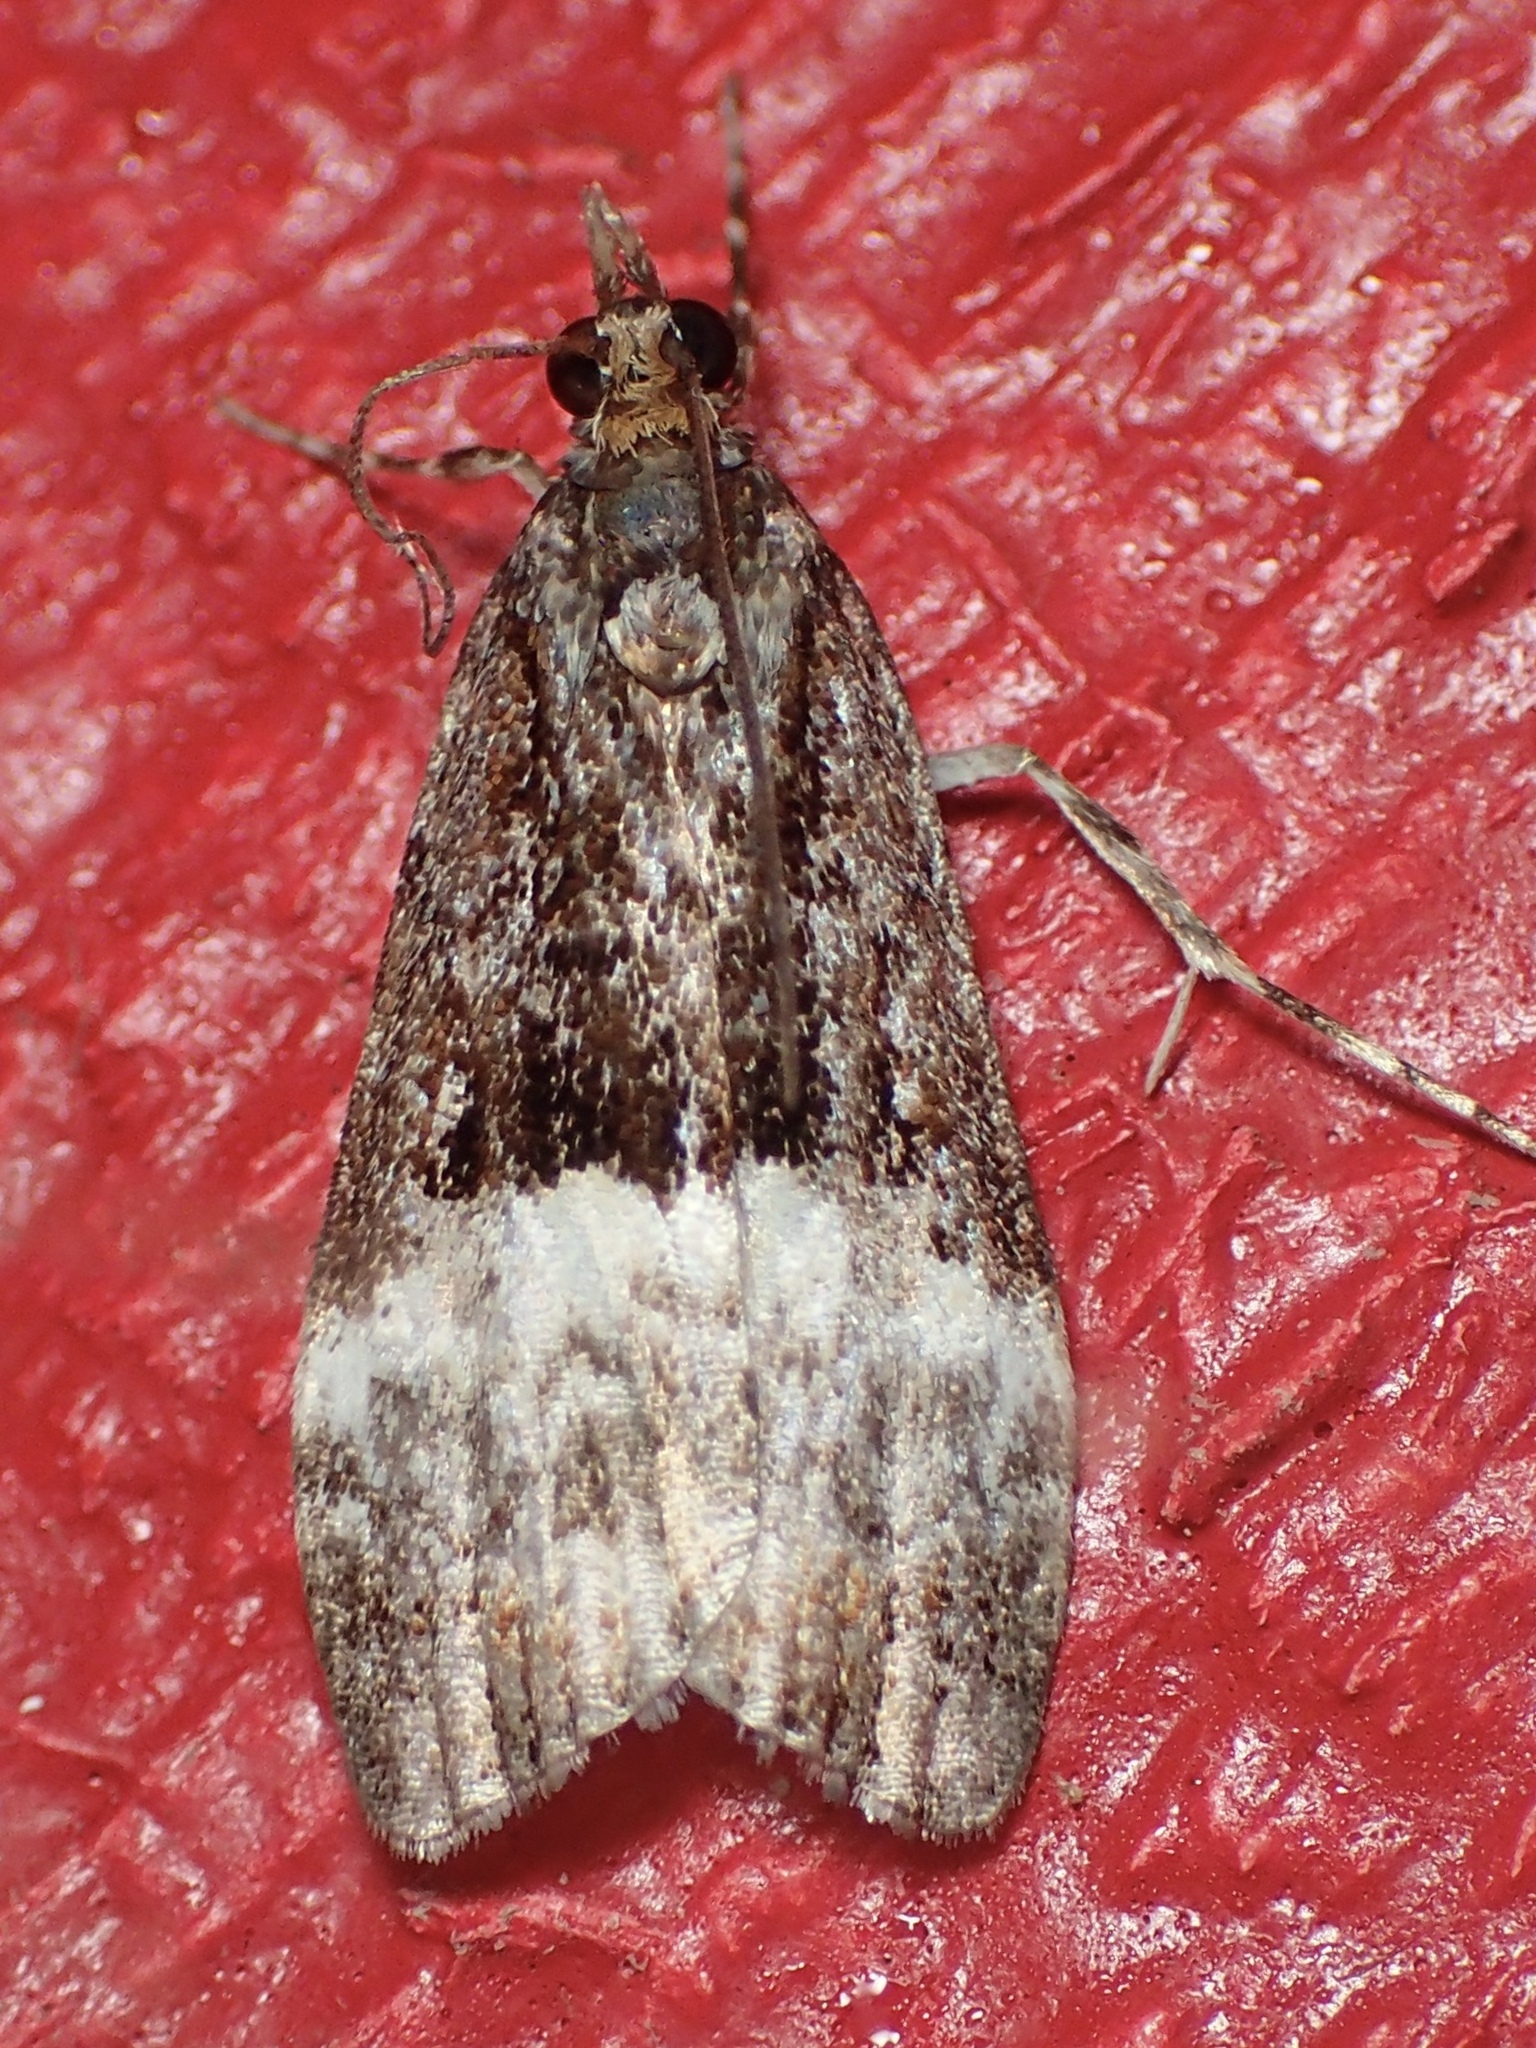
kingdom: Animalia
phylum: Arthropoda
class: Insecta
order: Lepidoptera
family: Crambidae
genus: Scoparia
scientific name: Scoparia minusculalis
